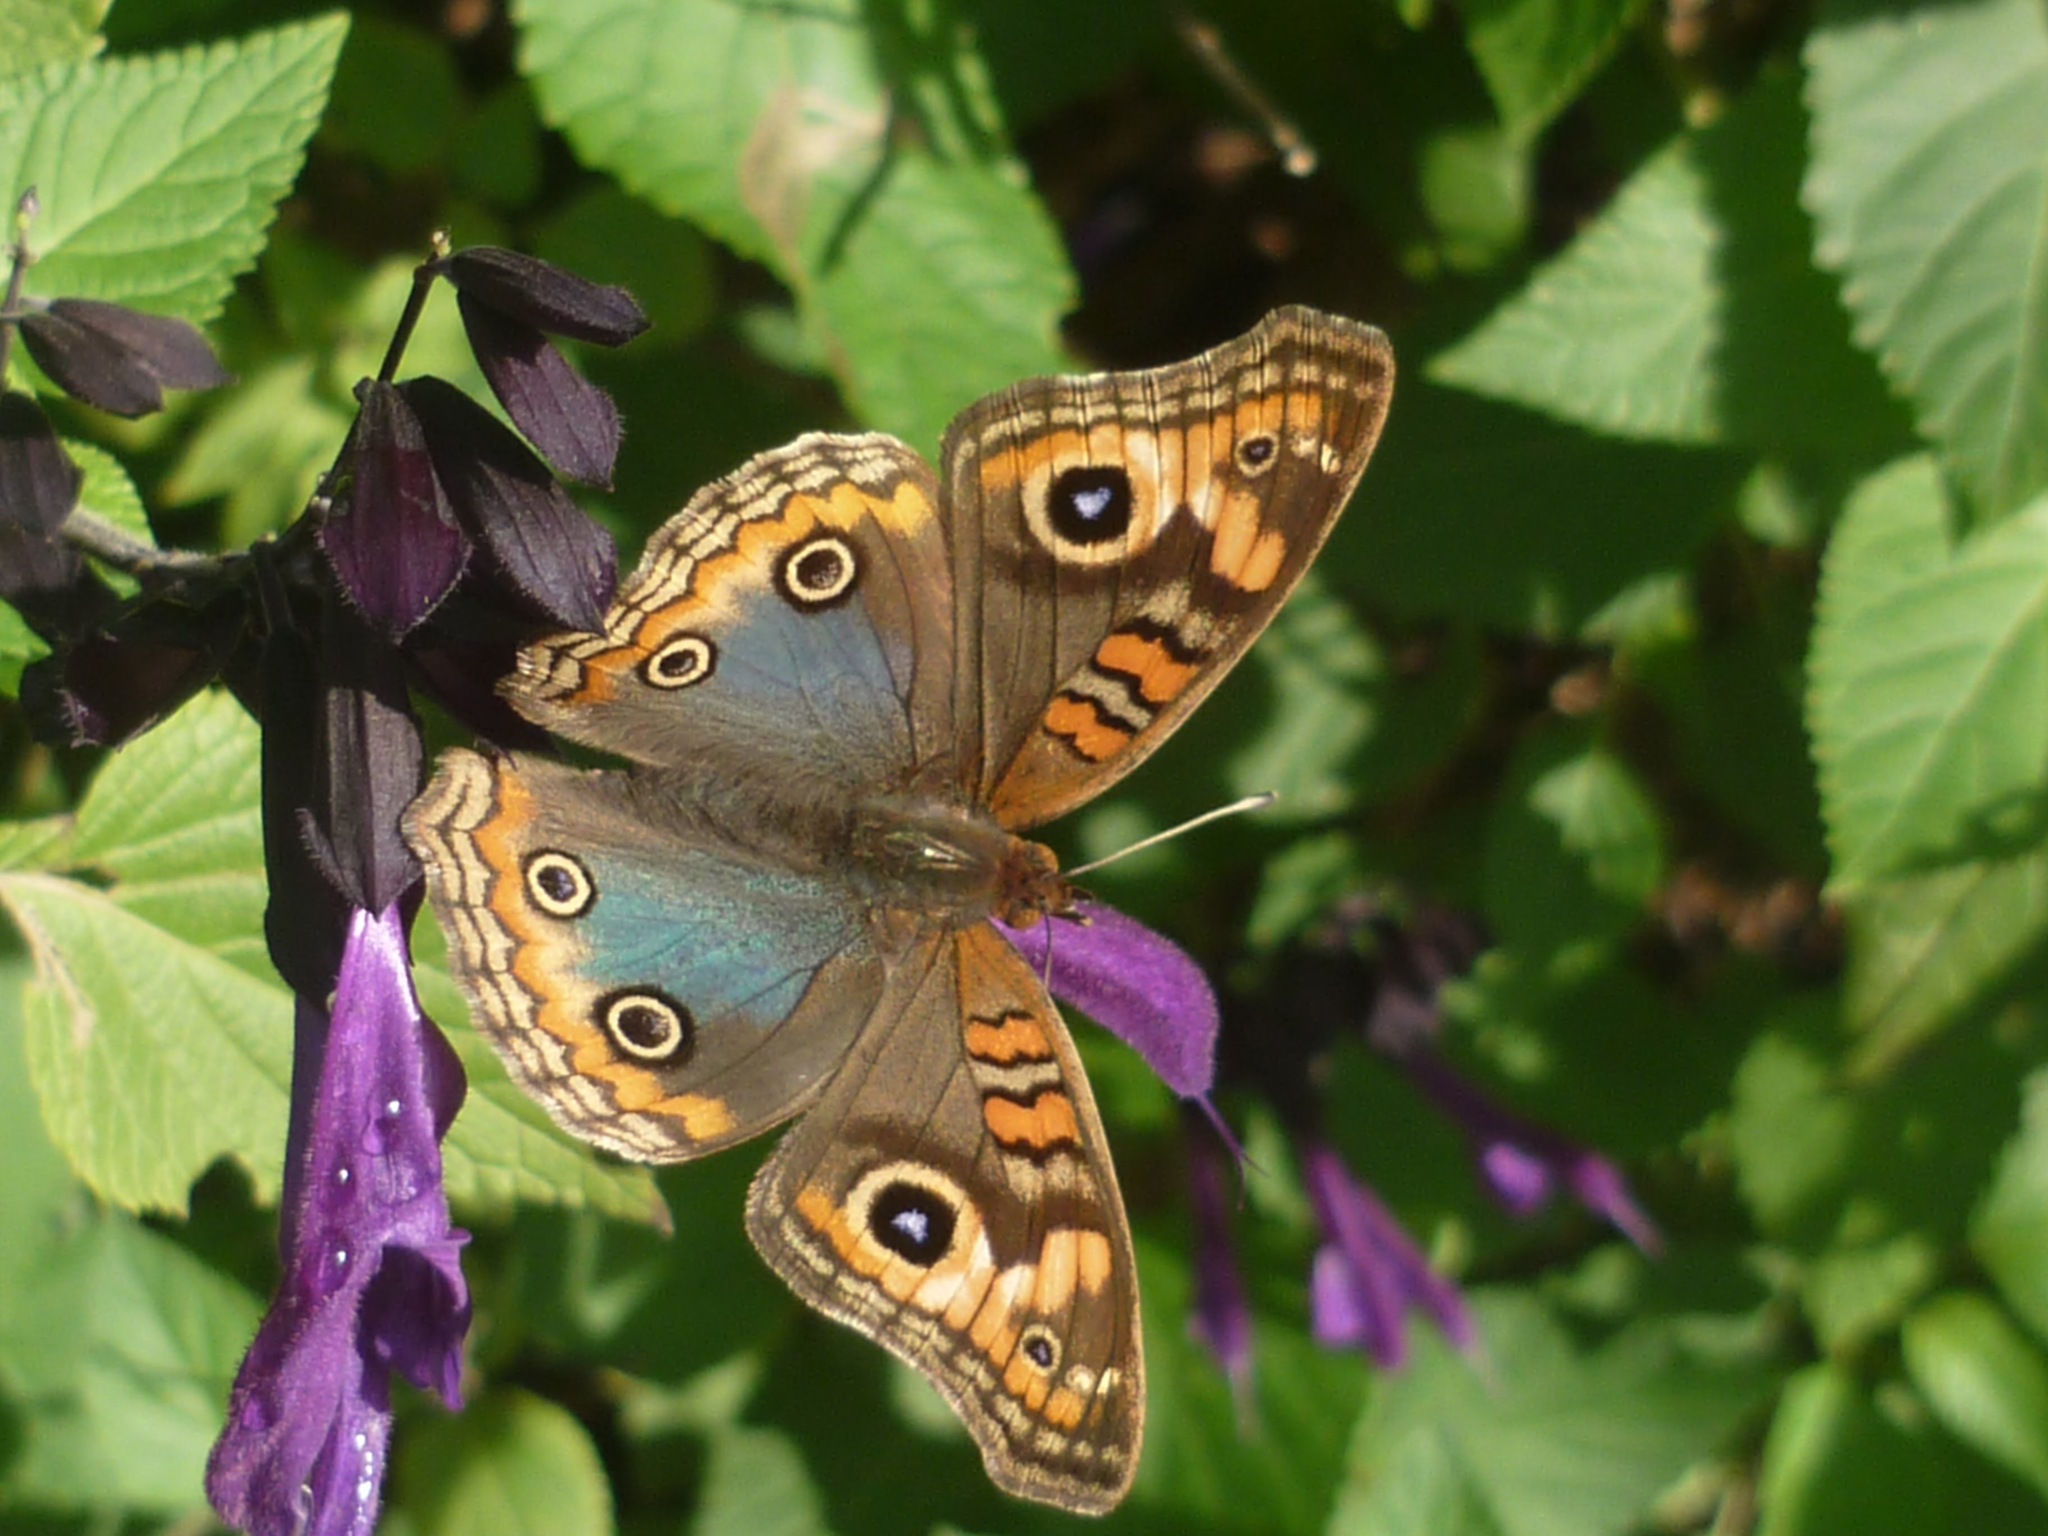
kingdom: Animalia
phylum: Arthropoda
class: Insecta
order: Lepidoptera
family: Nymphalidae
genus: Junonia
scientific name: Junonia lavinia
